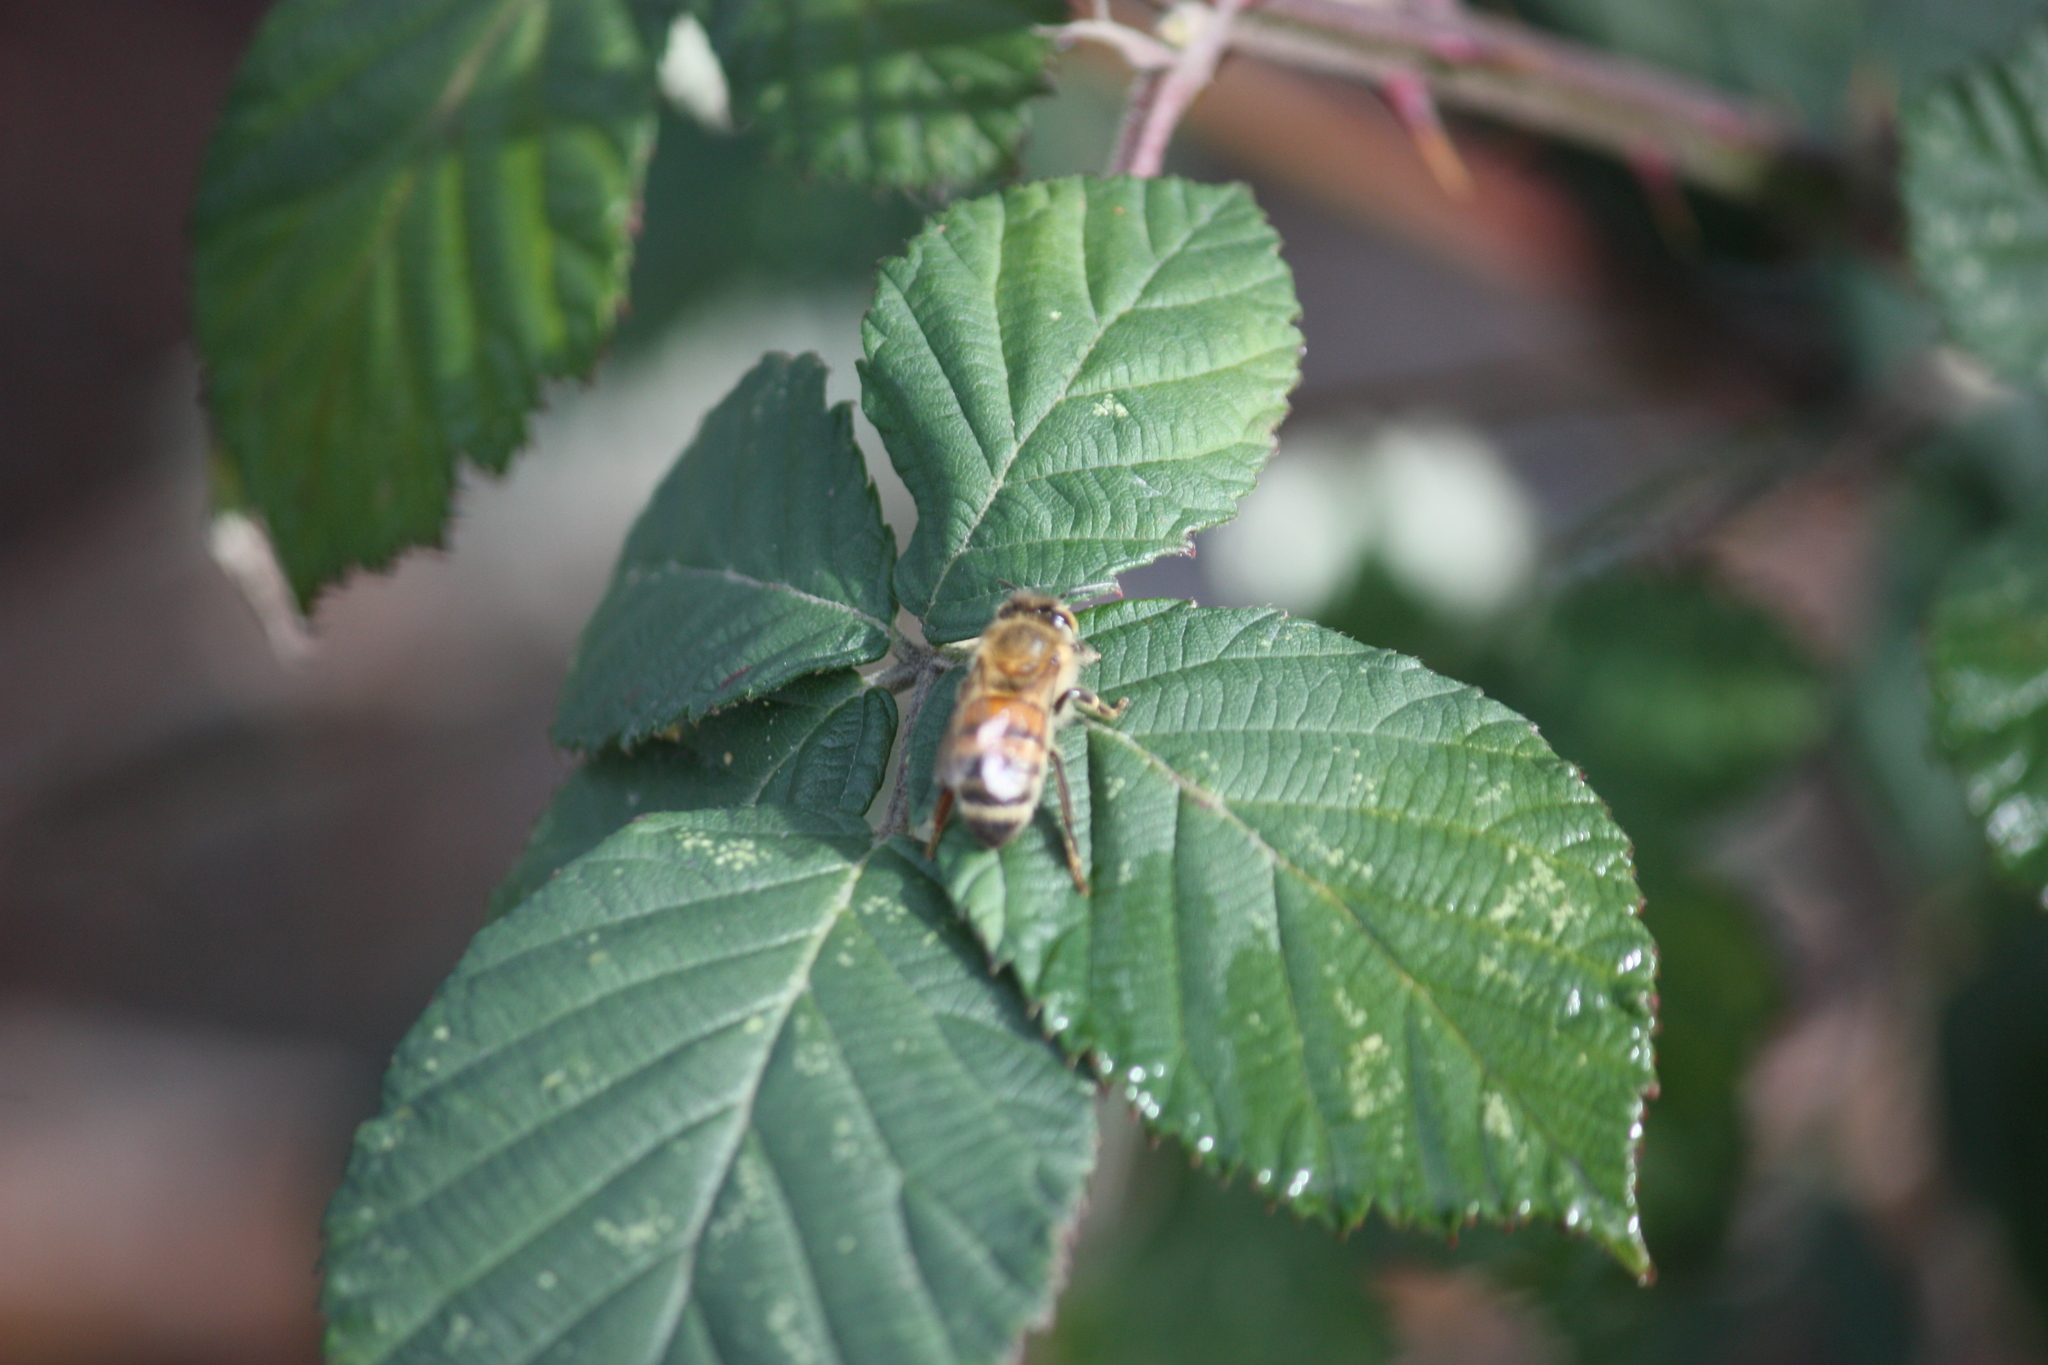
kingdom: Animalia
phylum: Arthropoda
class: Insecta
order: Hymenoptera
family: Apidae
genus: Apis
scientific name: Apis mellifera
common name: Honey bee
